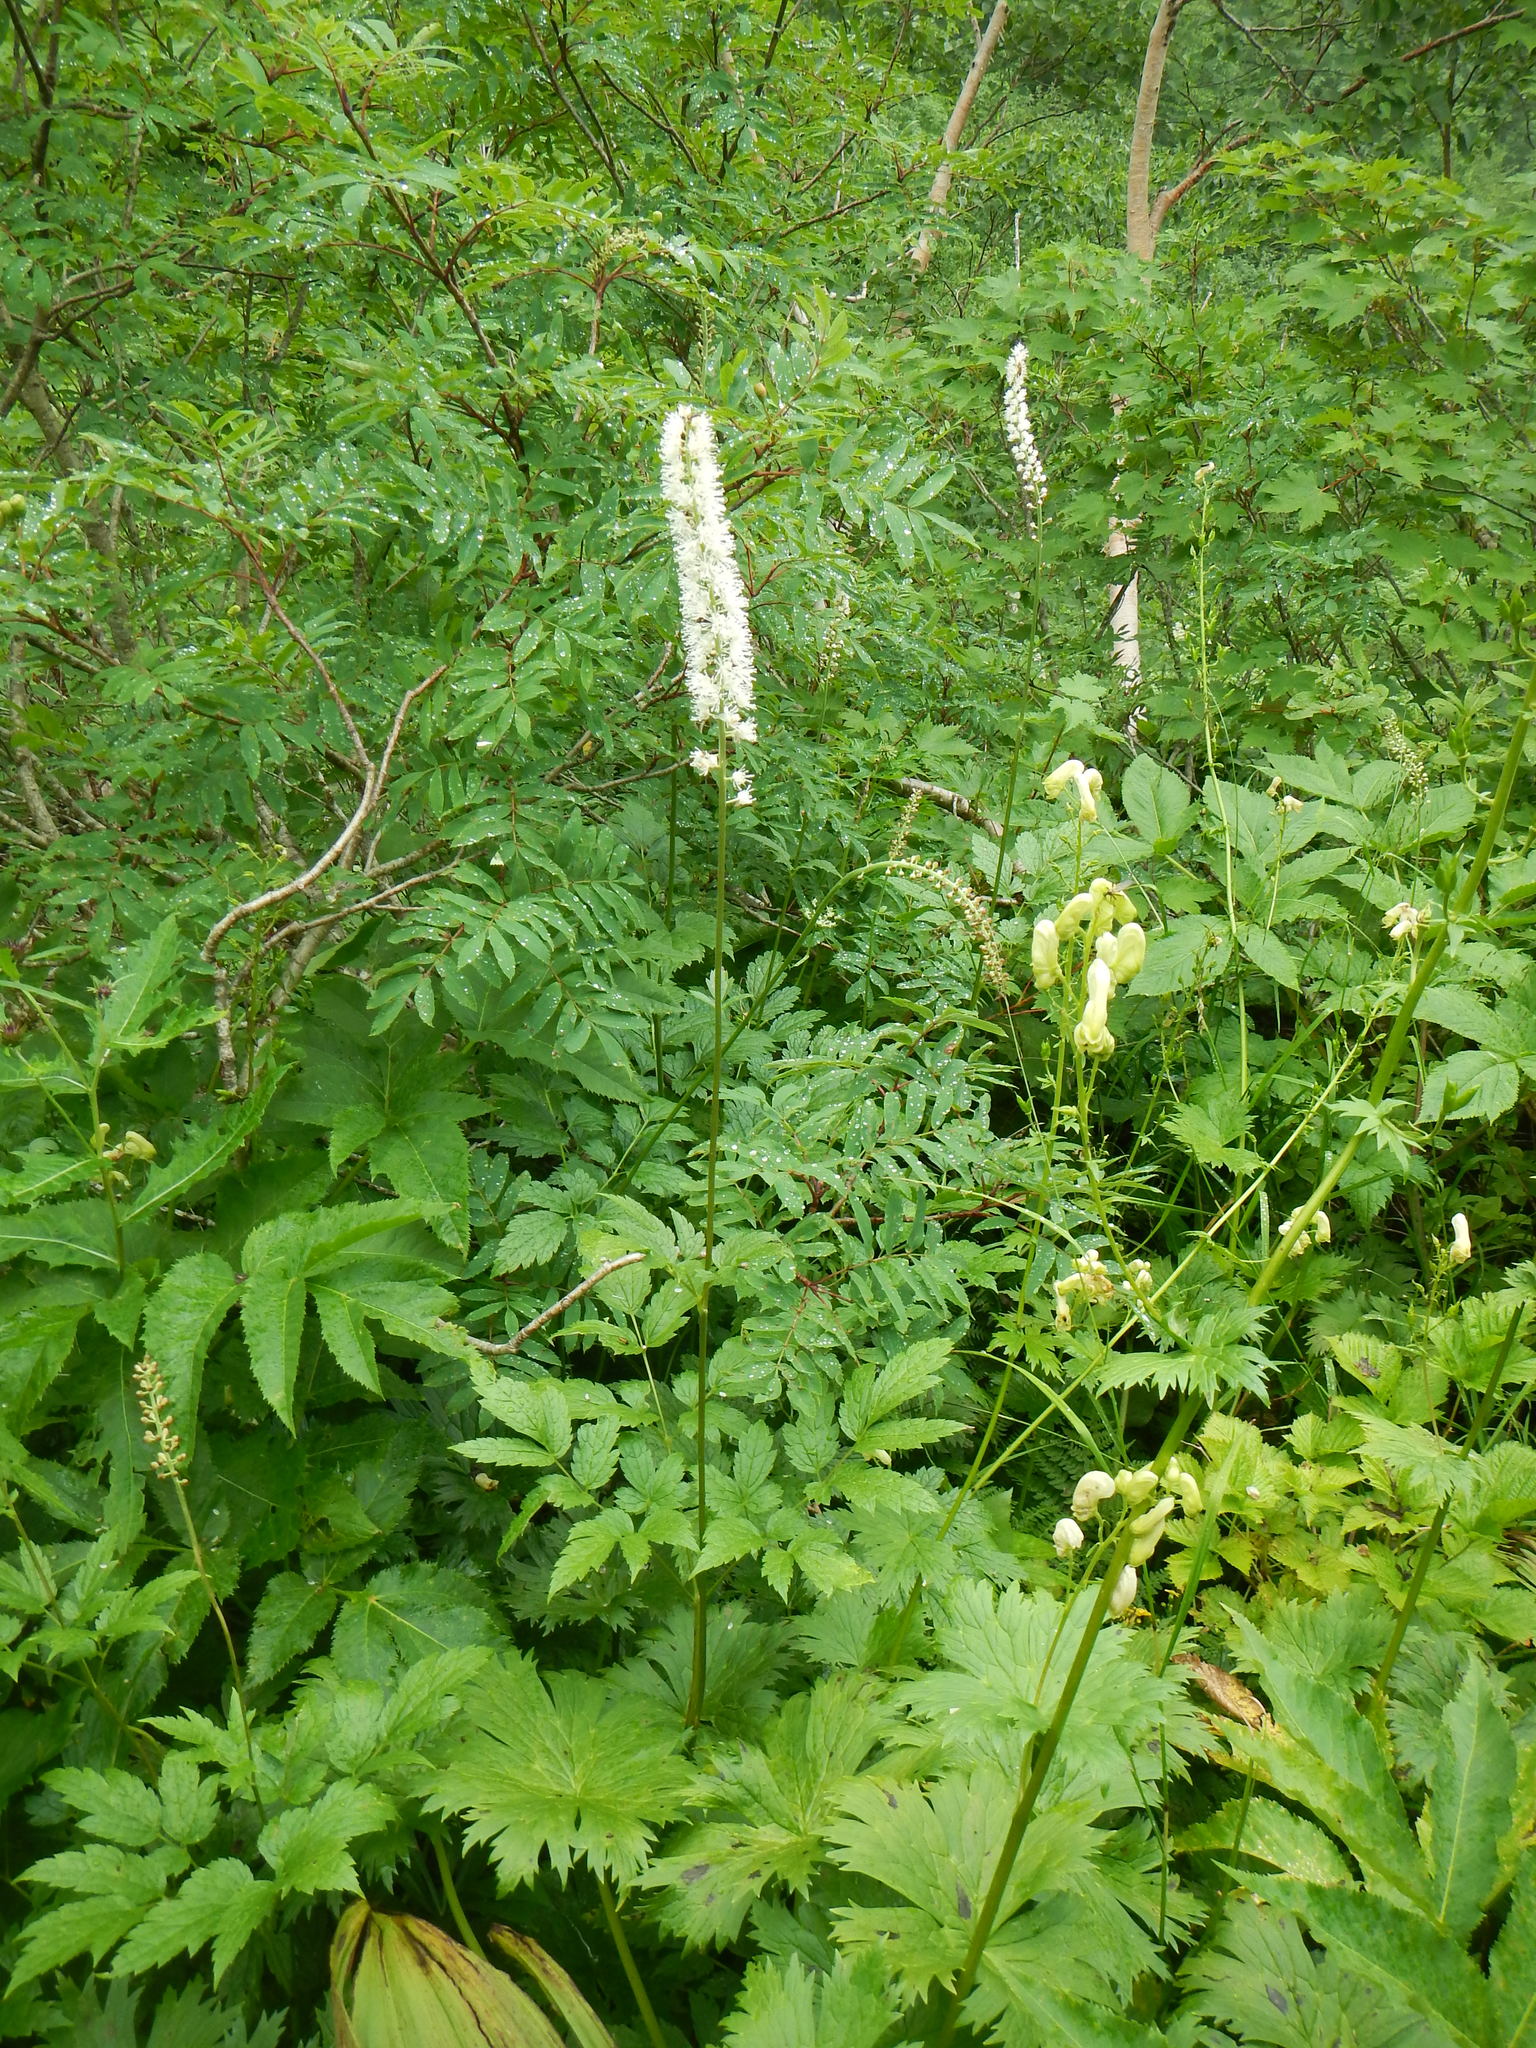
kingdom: Plantae
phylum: Tracheophyta
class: Magnoliopsida
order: Ranunculales
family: Ranunculaceae
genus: Actaea
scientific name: Actaea simplex
